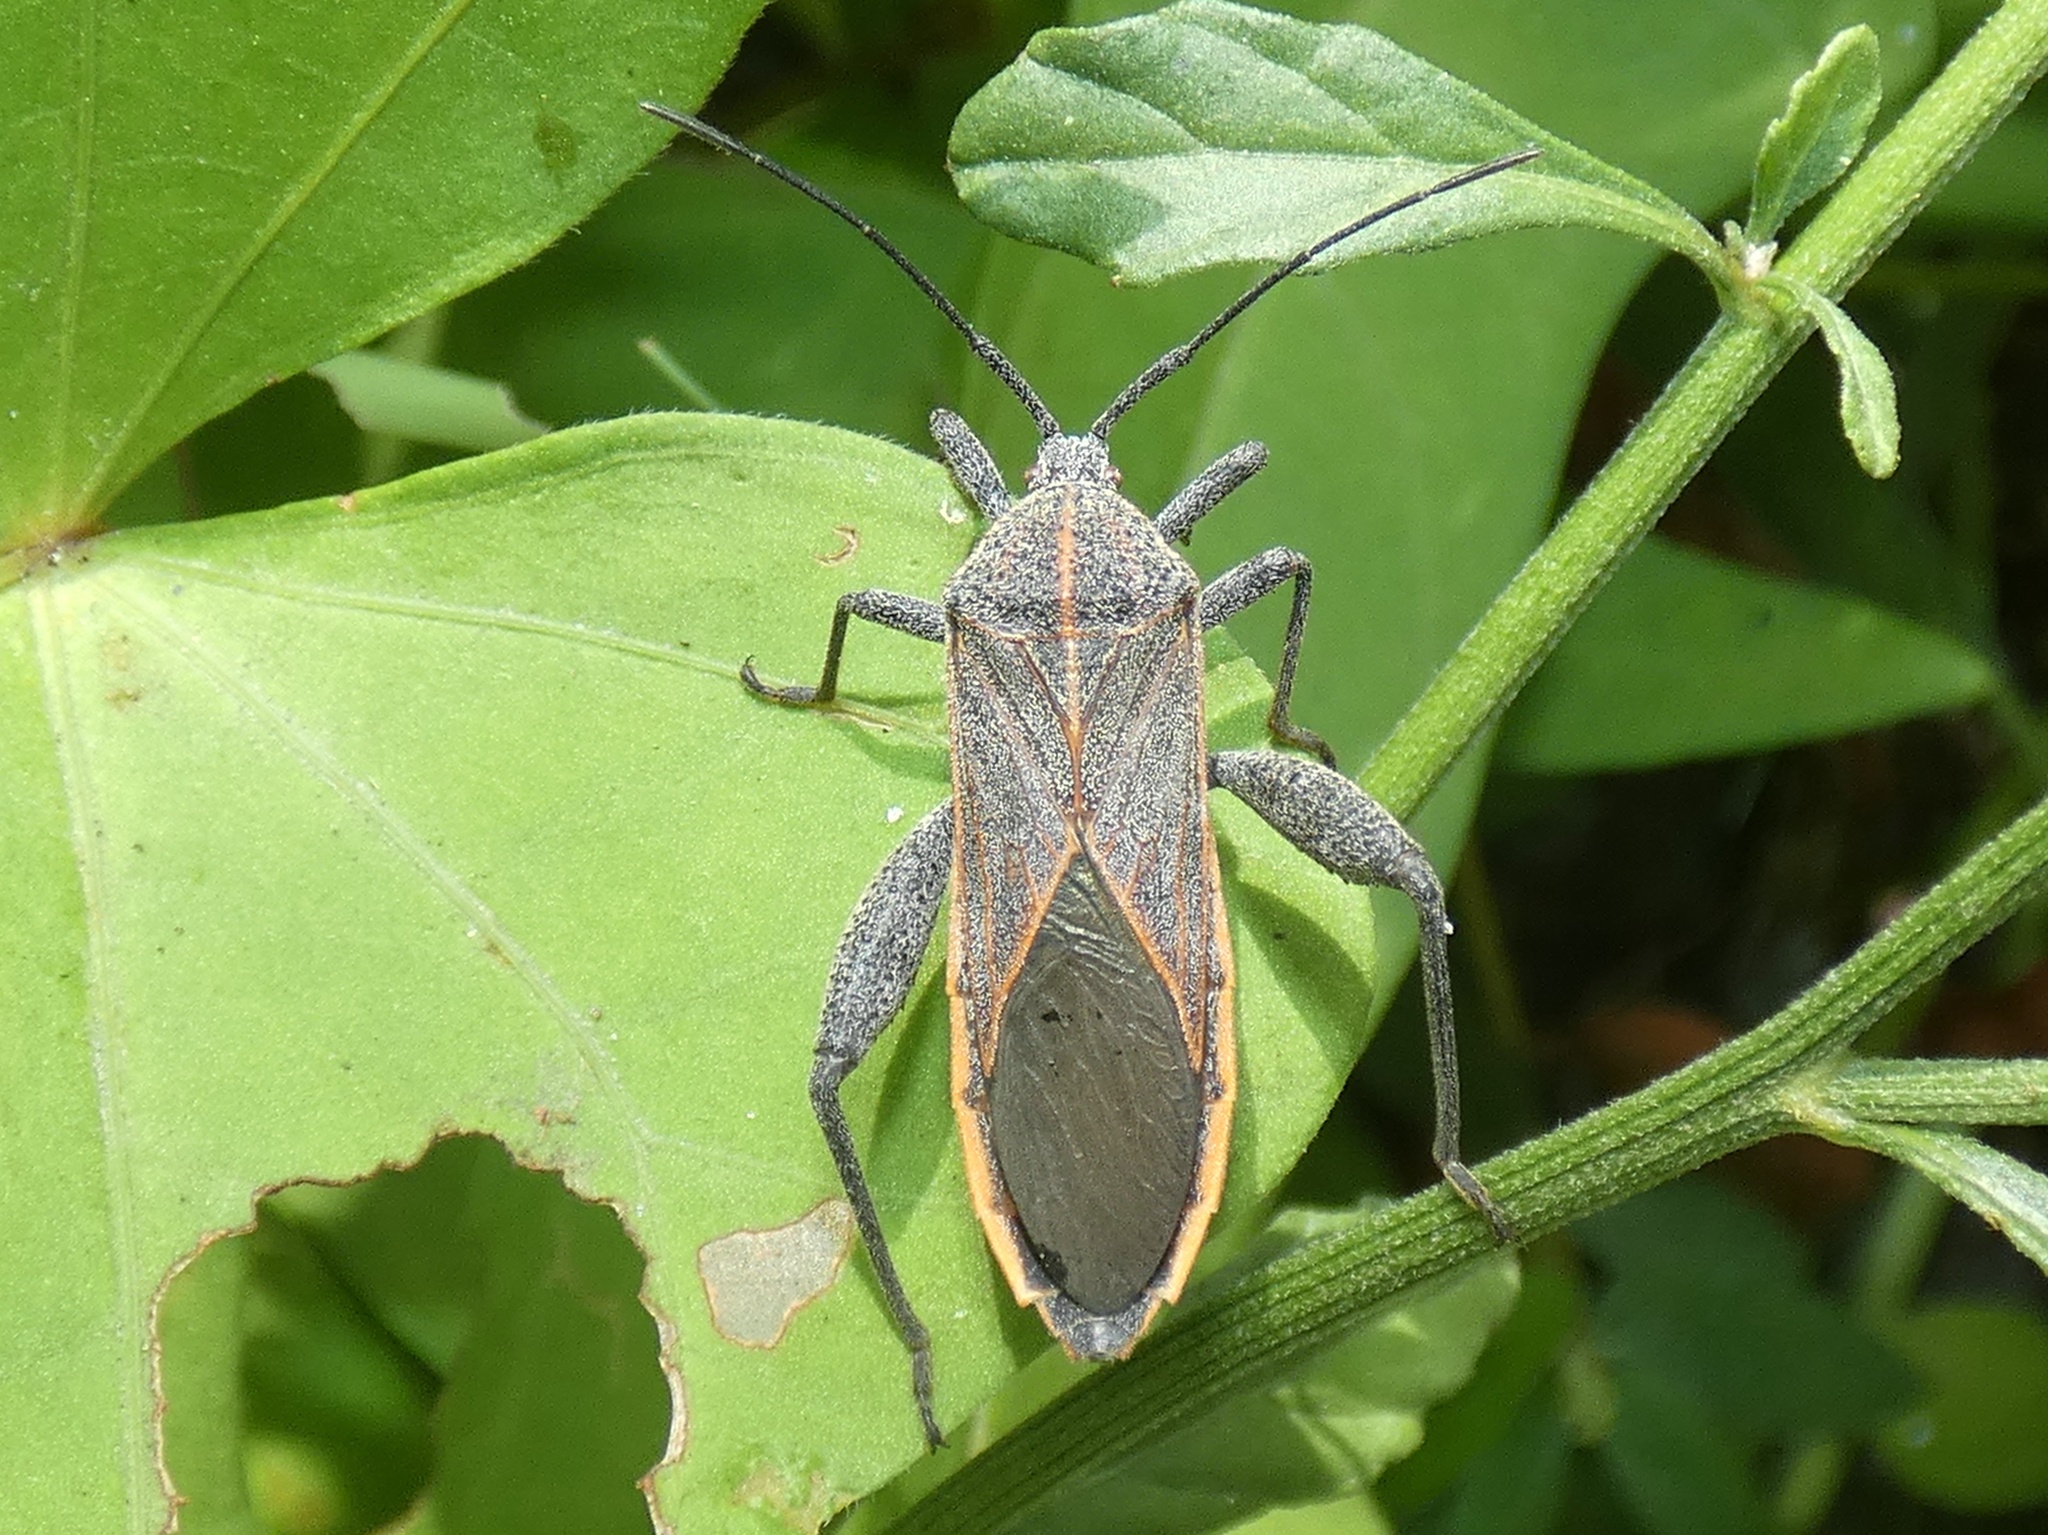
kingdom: Animalia
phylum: Arthropoda
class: Insecta
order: Hemiptera
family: Coreidae
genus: Physomerus
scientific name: Physomerus grossipes
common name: Squash bug
